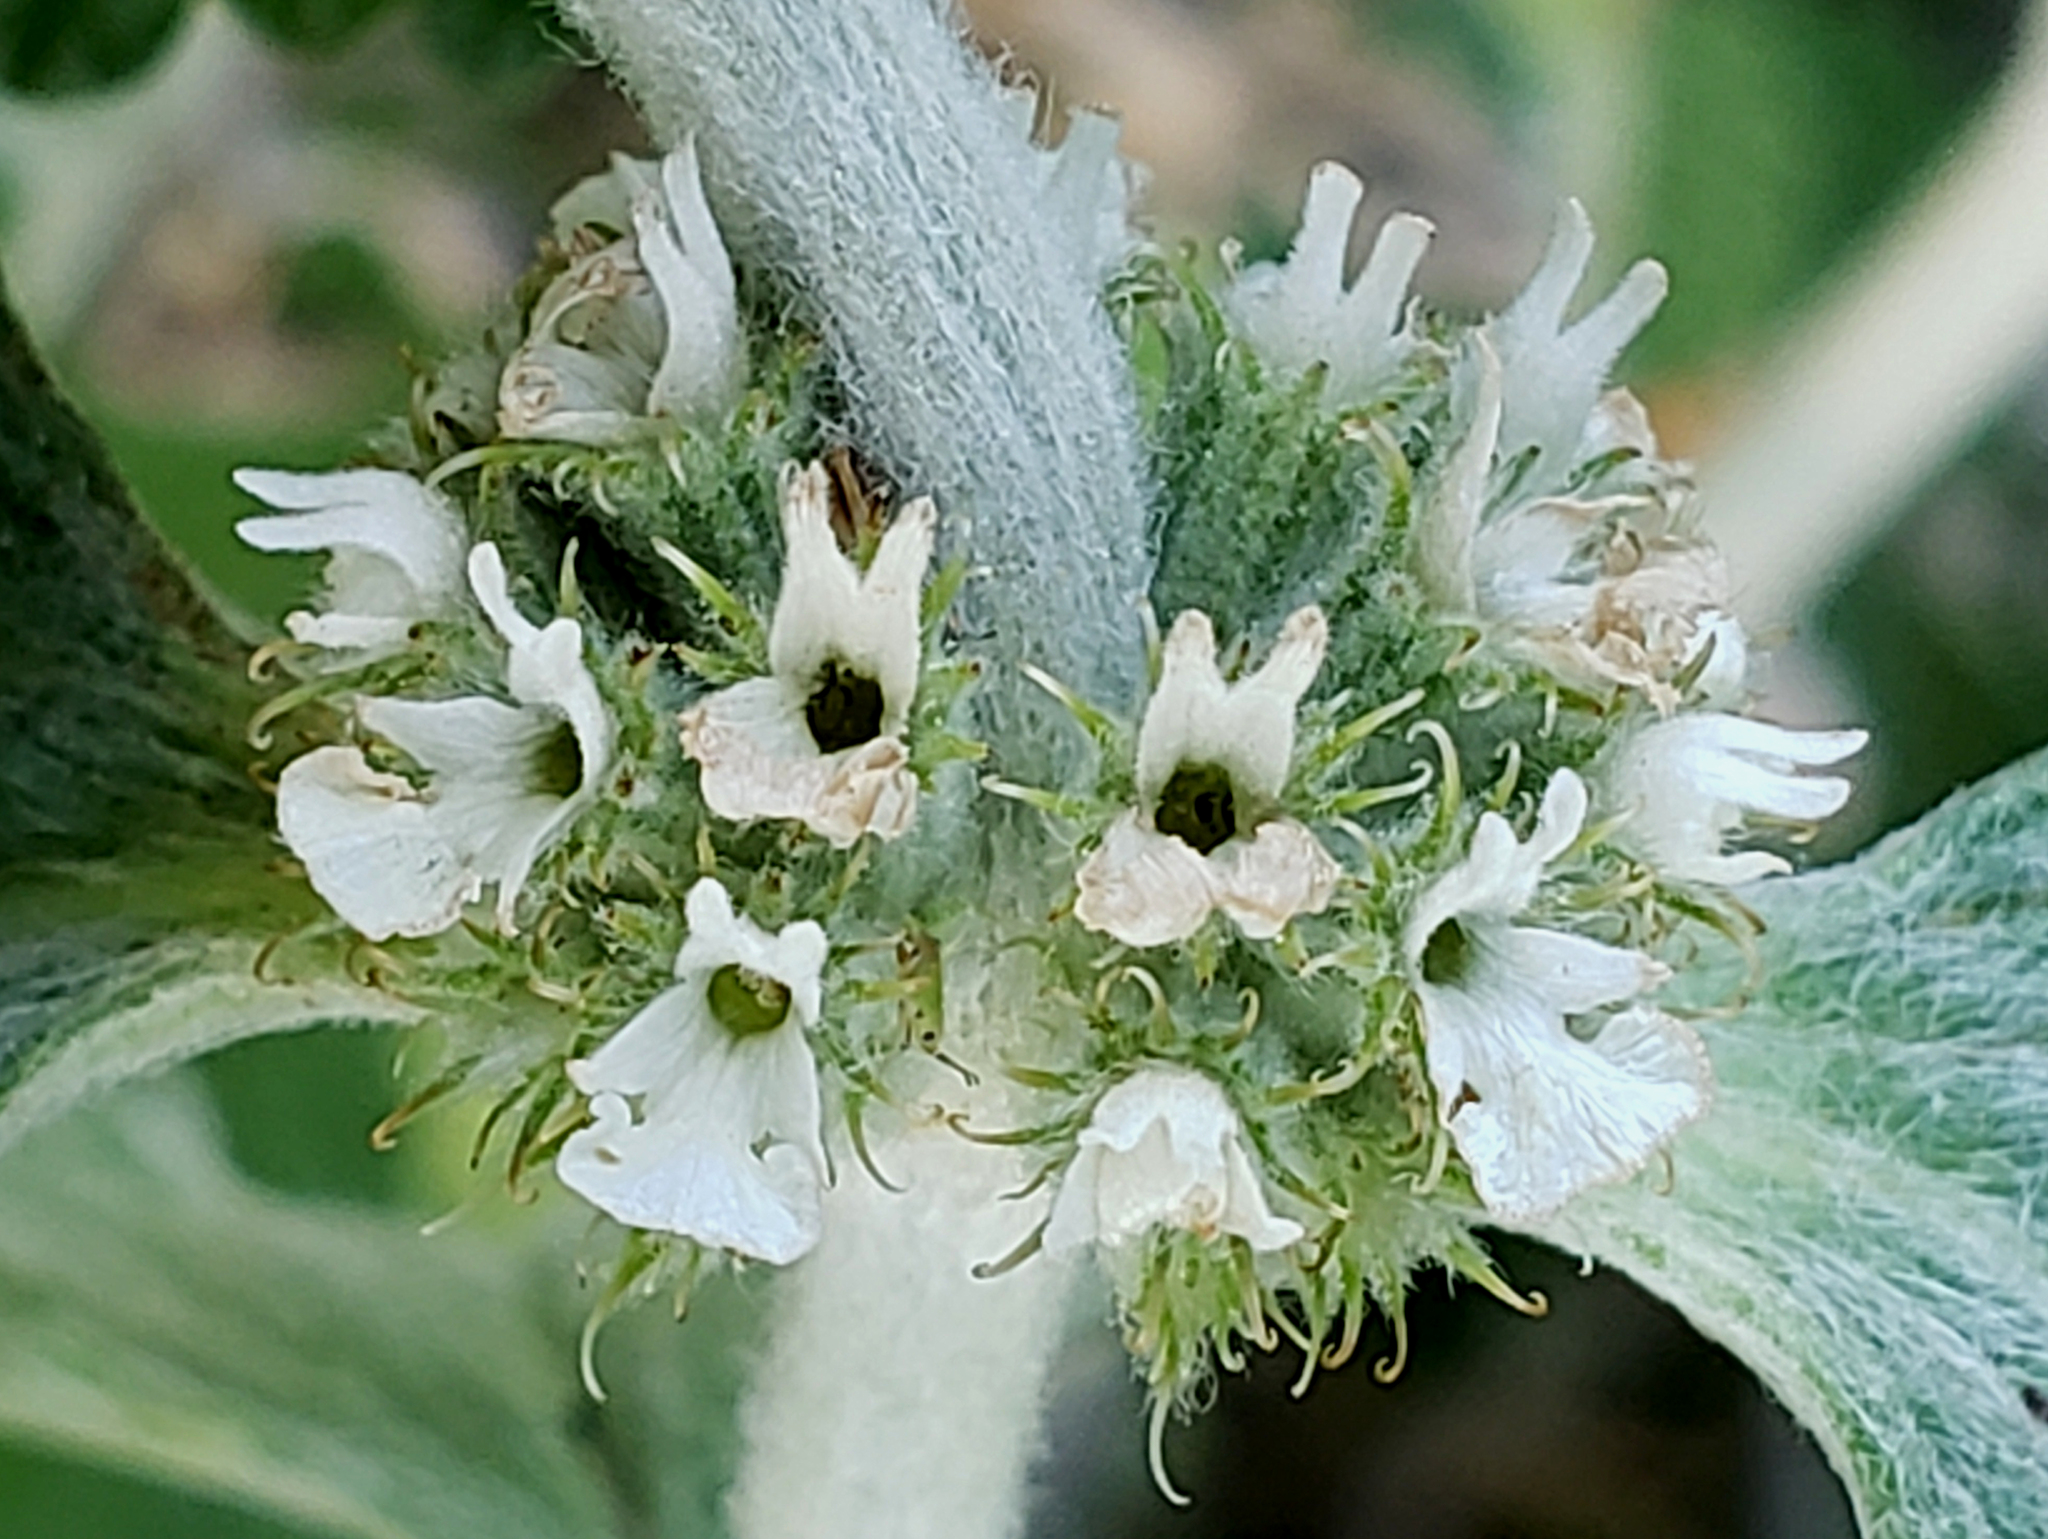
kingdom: Plantae
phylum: Tracheophyta
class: Magnoliopsida
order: Lamiales
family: Lamiaceae
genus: Marrubium
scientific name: Marrubium vulgare
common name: Horehound
